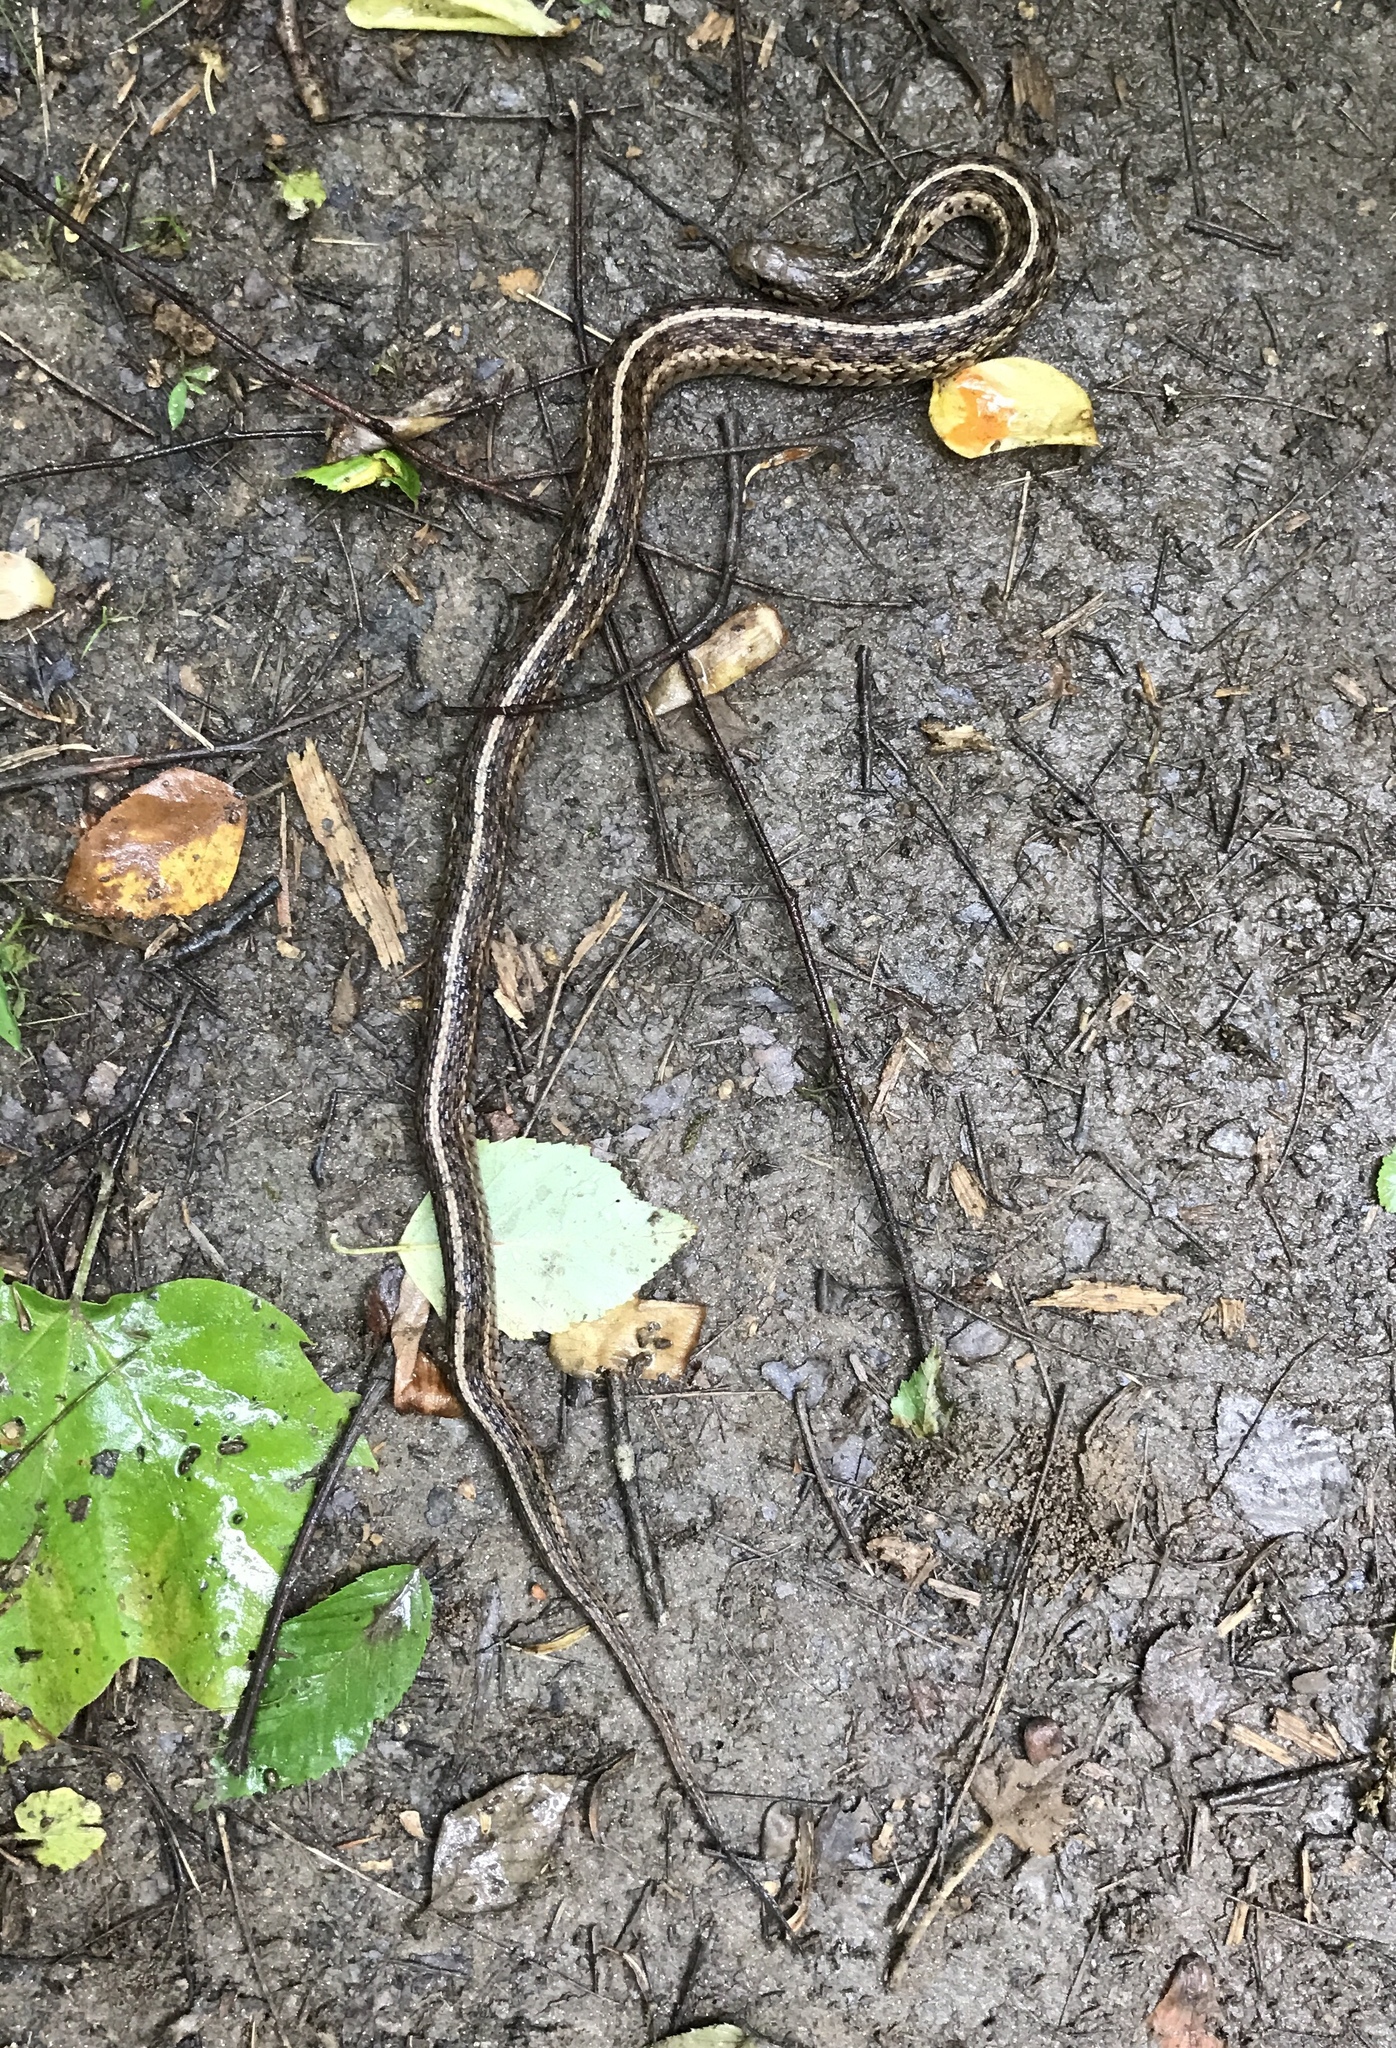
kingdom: Animalia
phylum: Chordata
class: Squamata
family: Colubridae
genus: Thamnophis
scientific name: Thamnophis sirtalis
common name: Common garter snake
